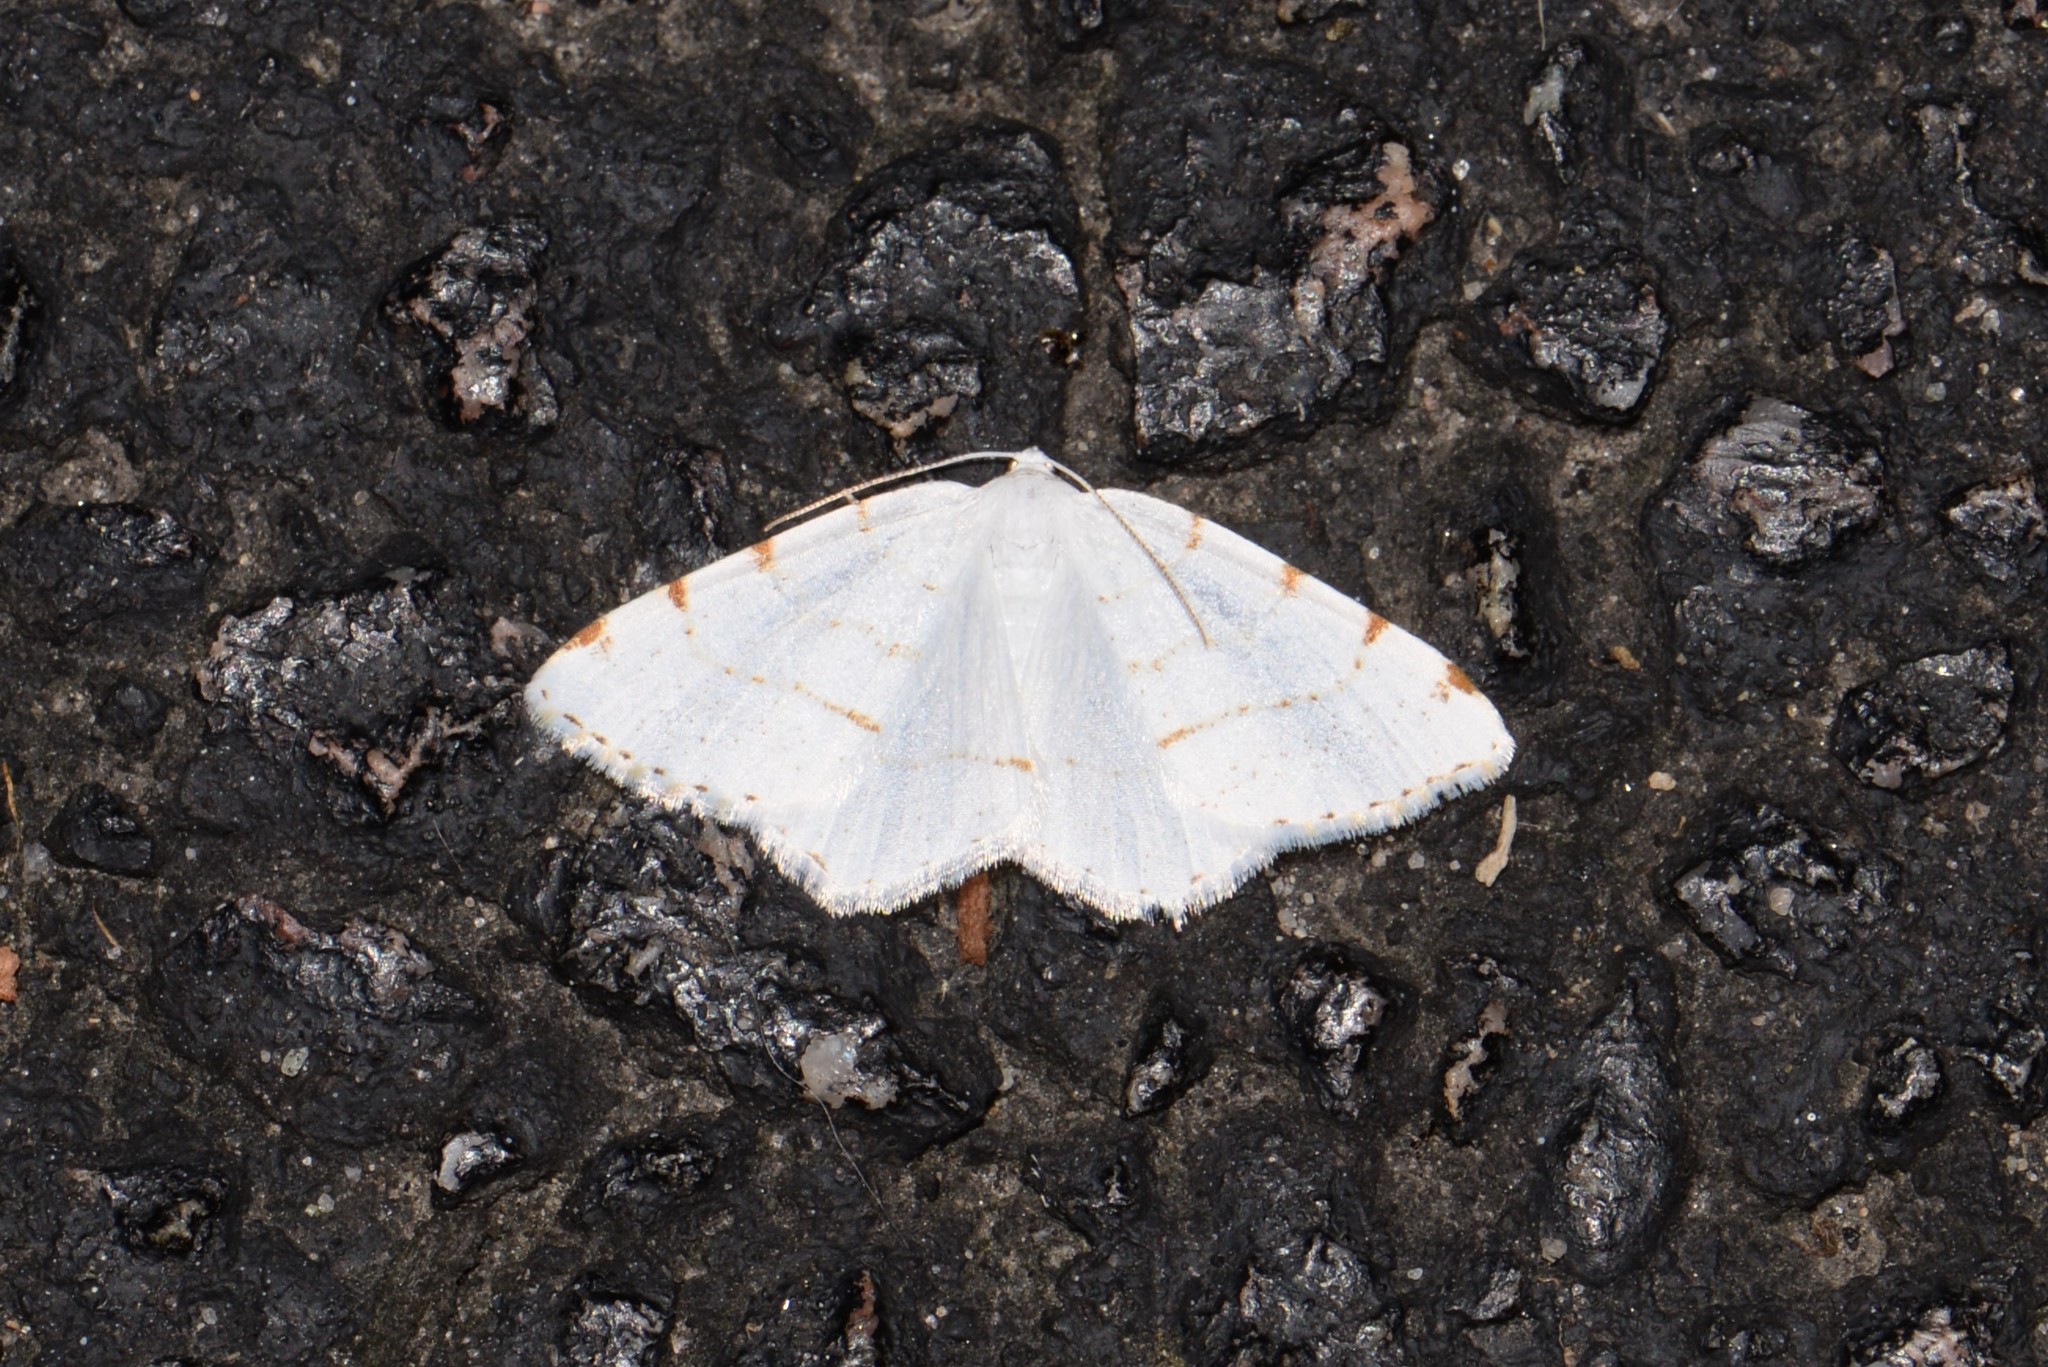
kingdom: Animalia
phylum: Arthropoda
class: Insecta
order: Lepidoptera
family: Geometridae
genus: Macaria
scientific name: Macaria pustularia
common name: Lesser maple spanworm moth
